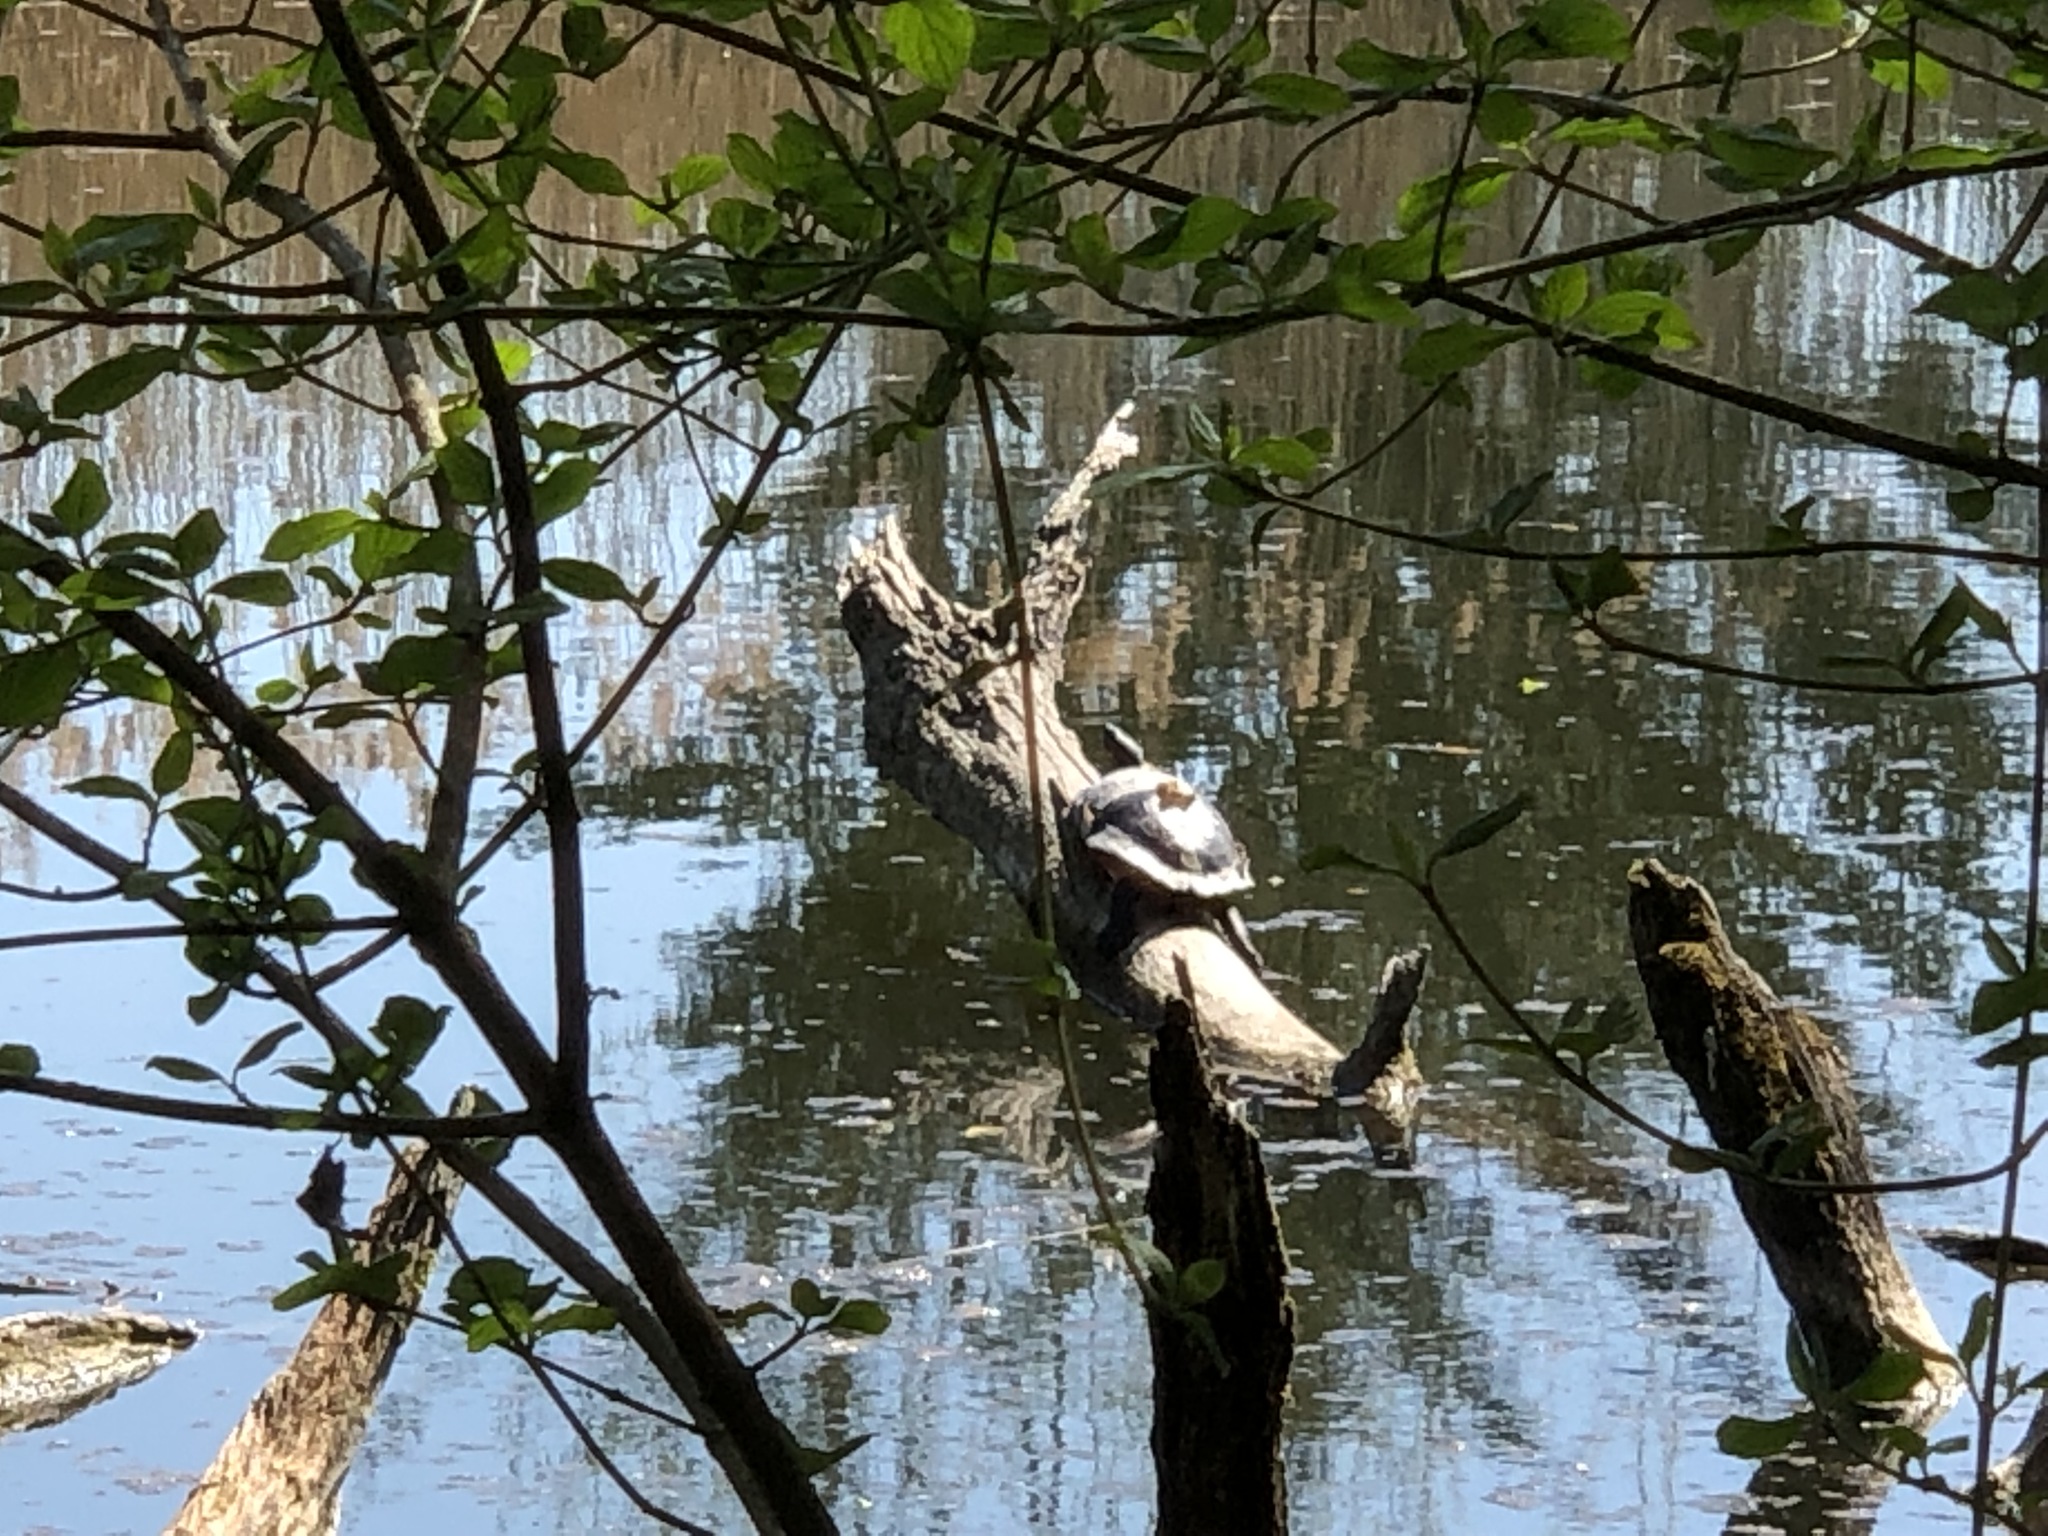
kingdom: Animalia
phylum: Chordata
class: Testudines
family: Emydidae
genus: Trachemys
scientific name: Trachemys
